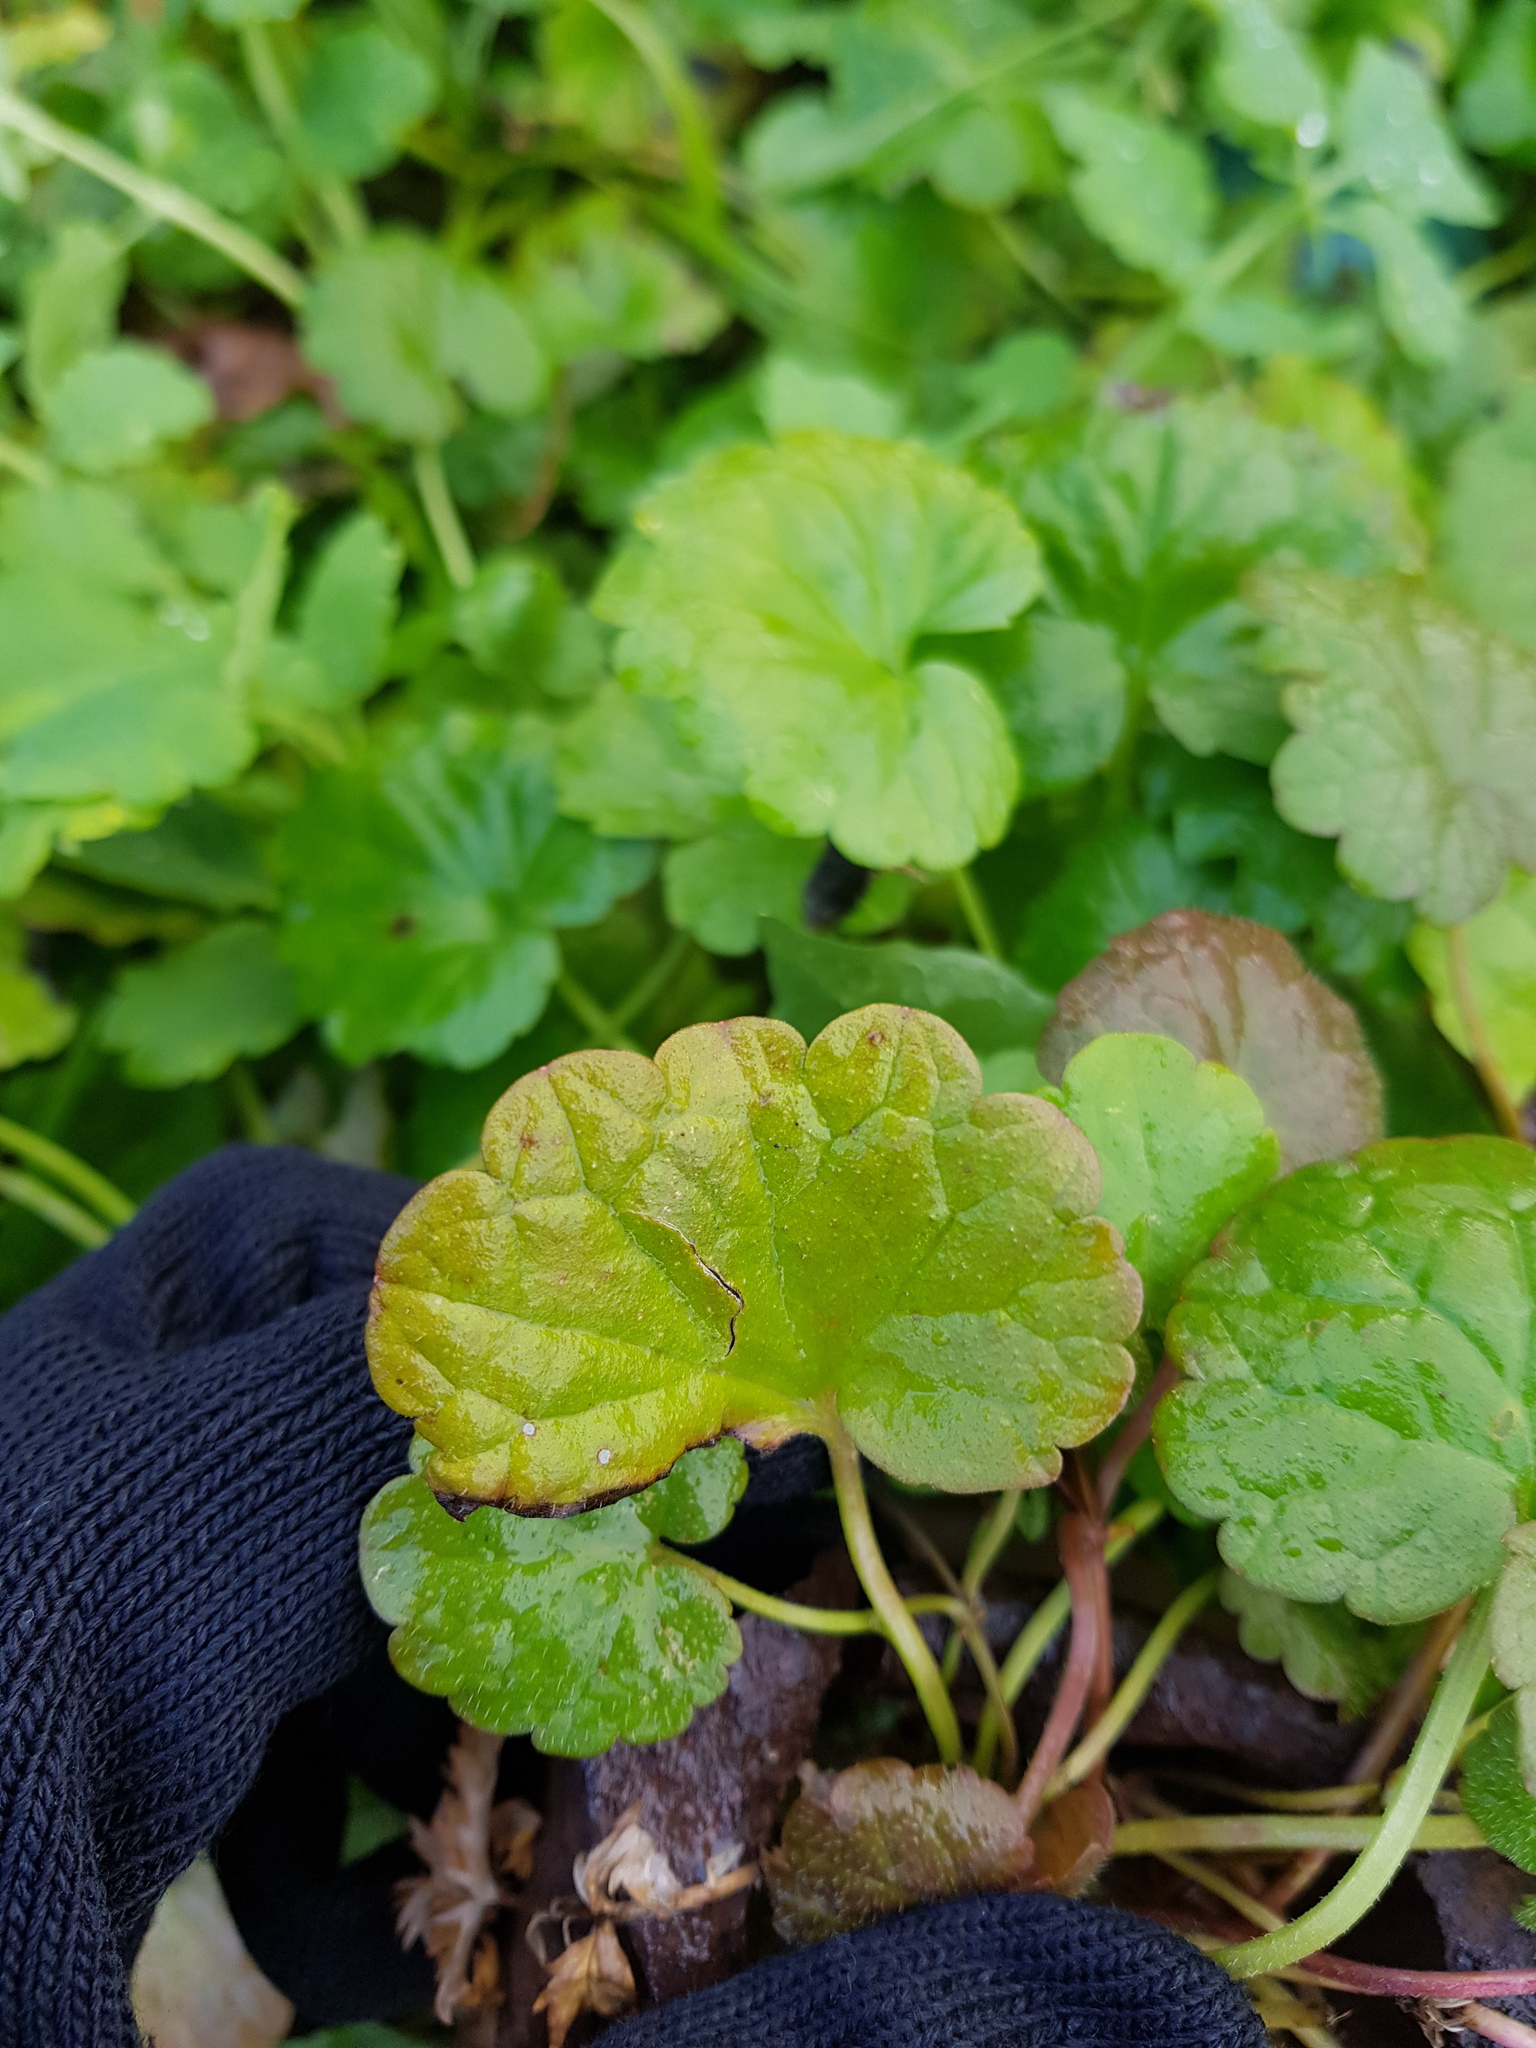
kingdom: Plantae
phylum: Tracheophyta
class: Magnoliopsida
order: Lamiales
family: Lamiaceae
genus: Glechoma
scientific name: Glechoma hederacea
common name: Ground ivy
